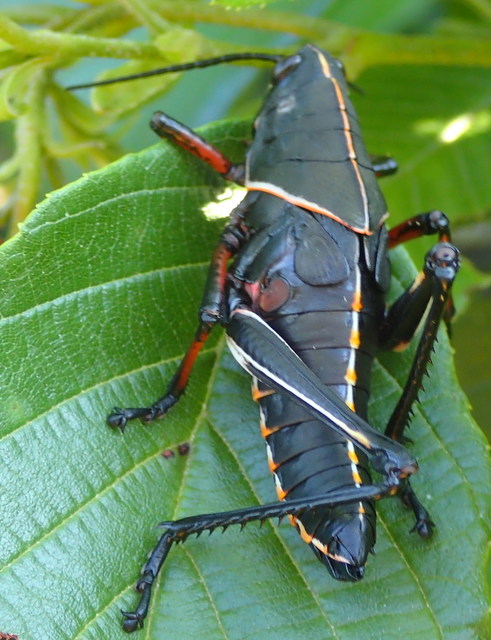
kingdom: Animalia
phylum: Arthropoda
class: Insecta
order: Orthoptera
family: Romaleidae
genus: Romalea
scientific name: Romalea microptera
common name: Eastern lubber grasshopper
